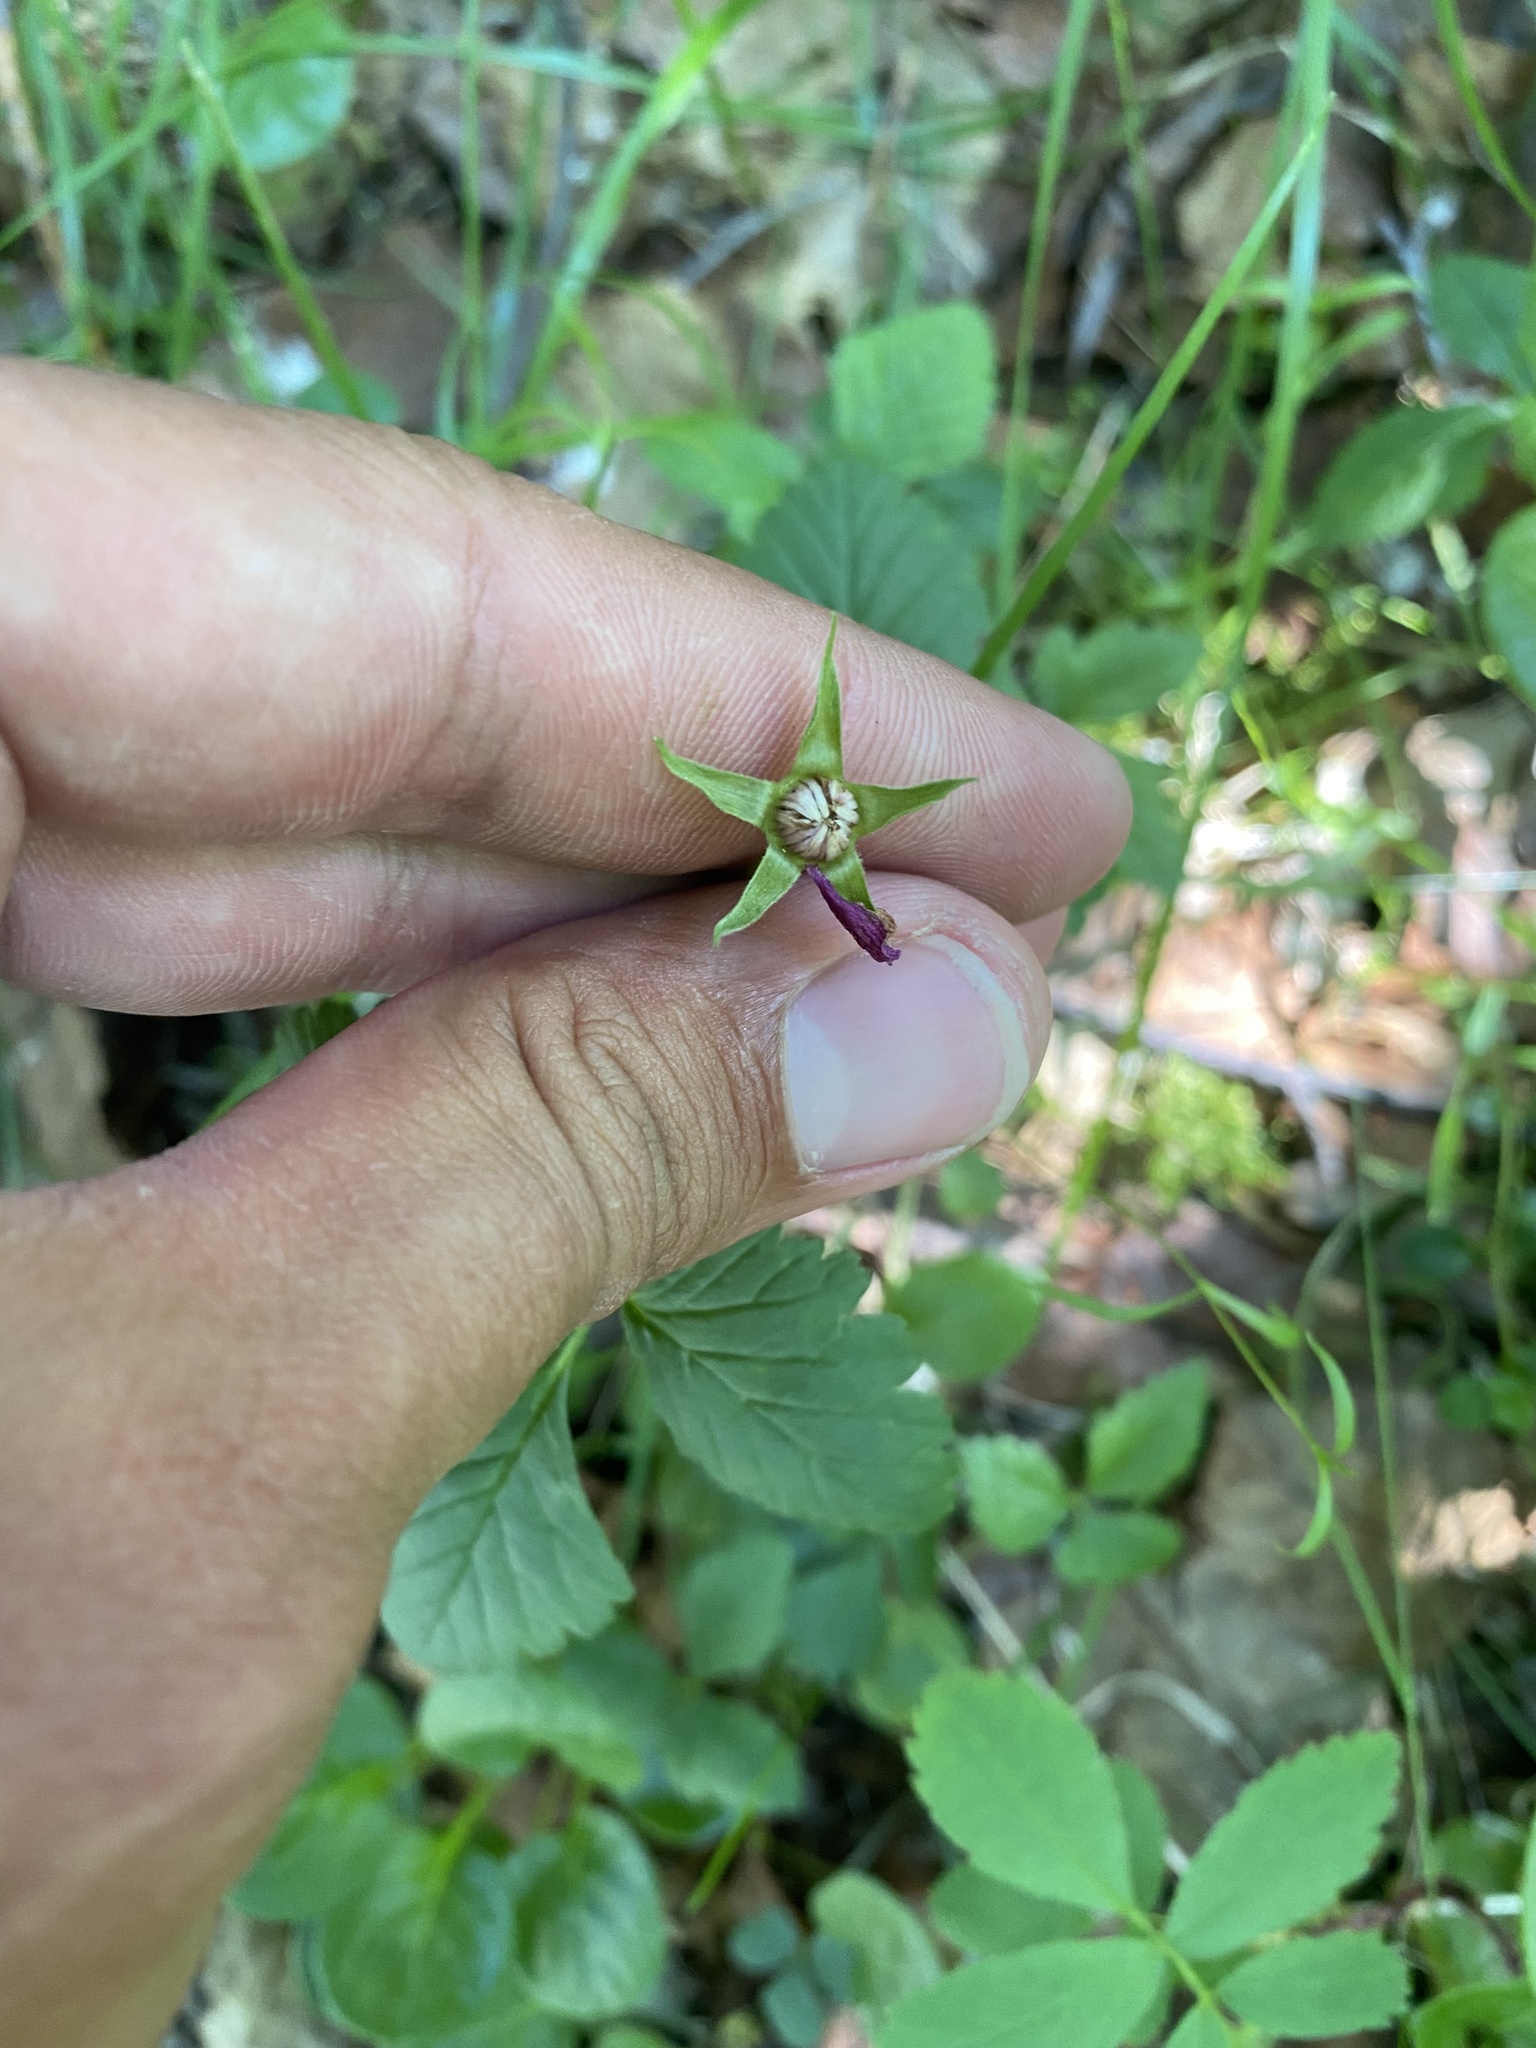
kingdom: Plantae
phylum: Tracheophyta
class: Magnoliopsida
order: Rosales
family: Rosaceae
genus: Rubus
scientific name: Rubus arcticus
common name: Arctic bramble
